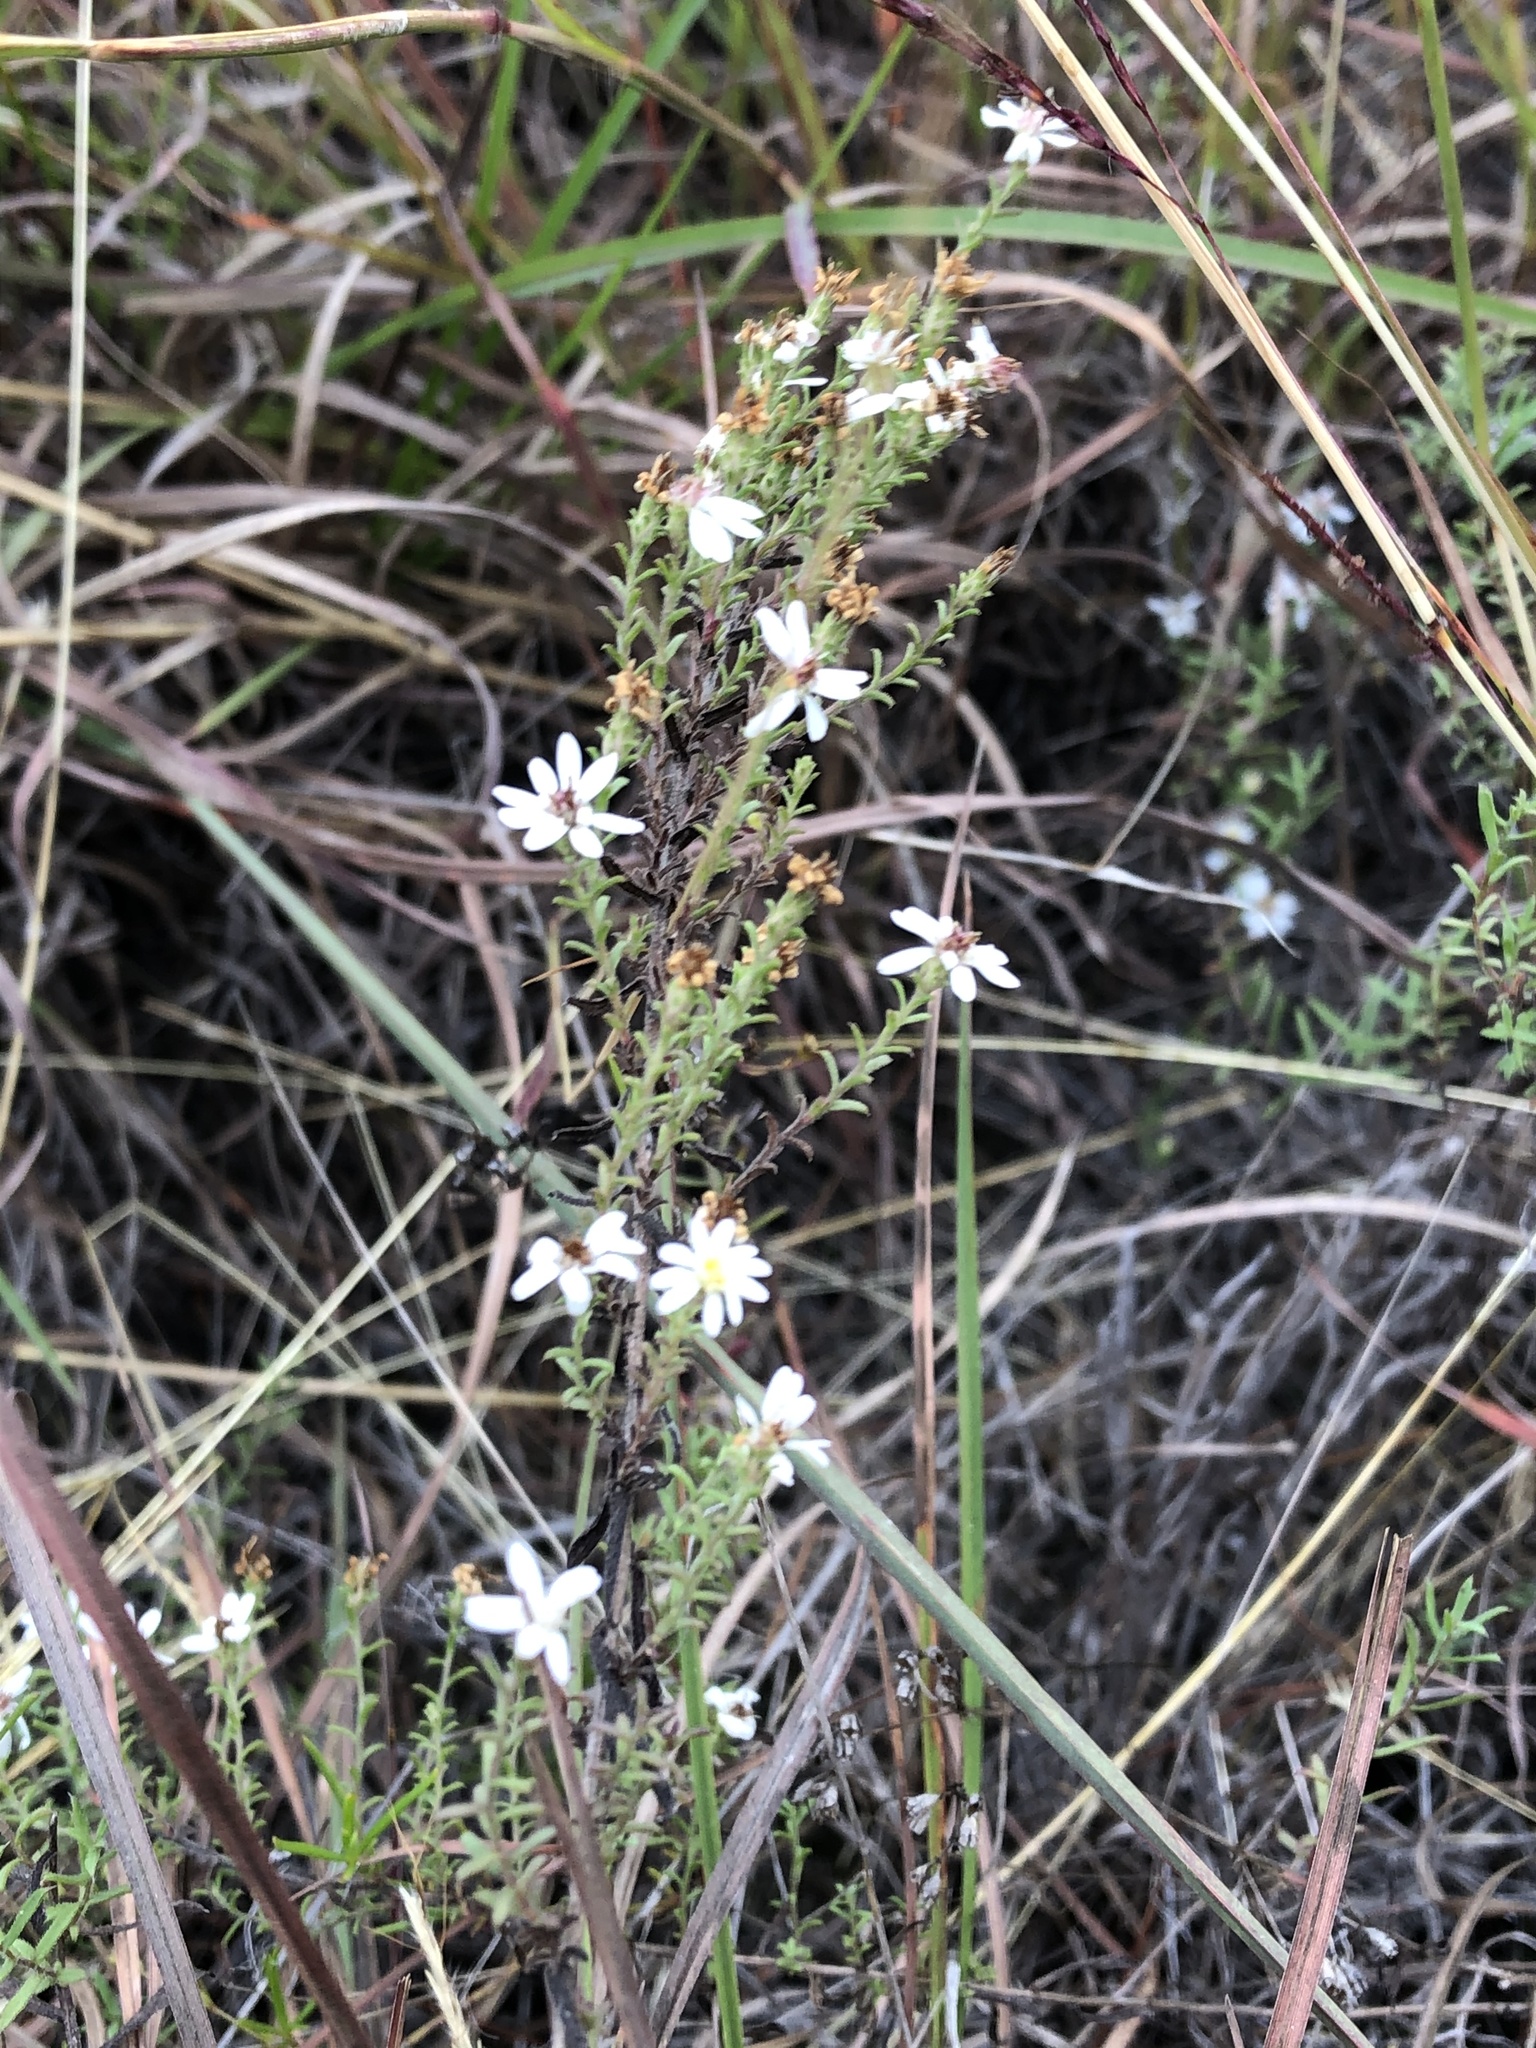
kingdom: Plantae
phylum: Tracheophyta
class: Magnoliopsida
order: Asterales
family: Asteraceae
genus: Symphyotrichum
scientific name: Symphyotrichum ericoides
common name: Heath aster
